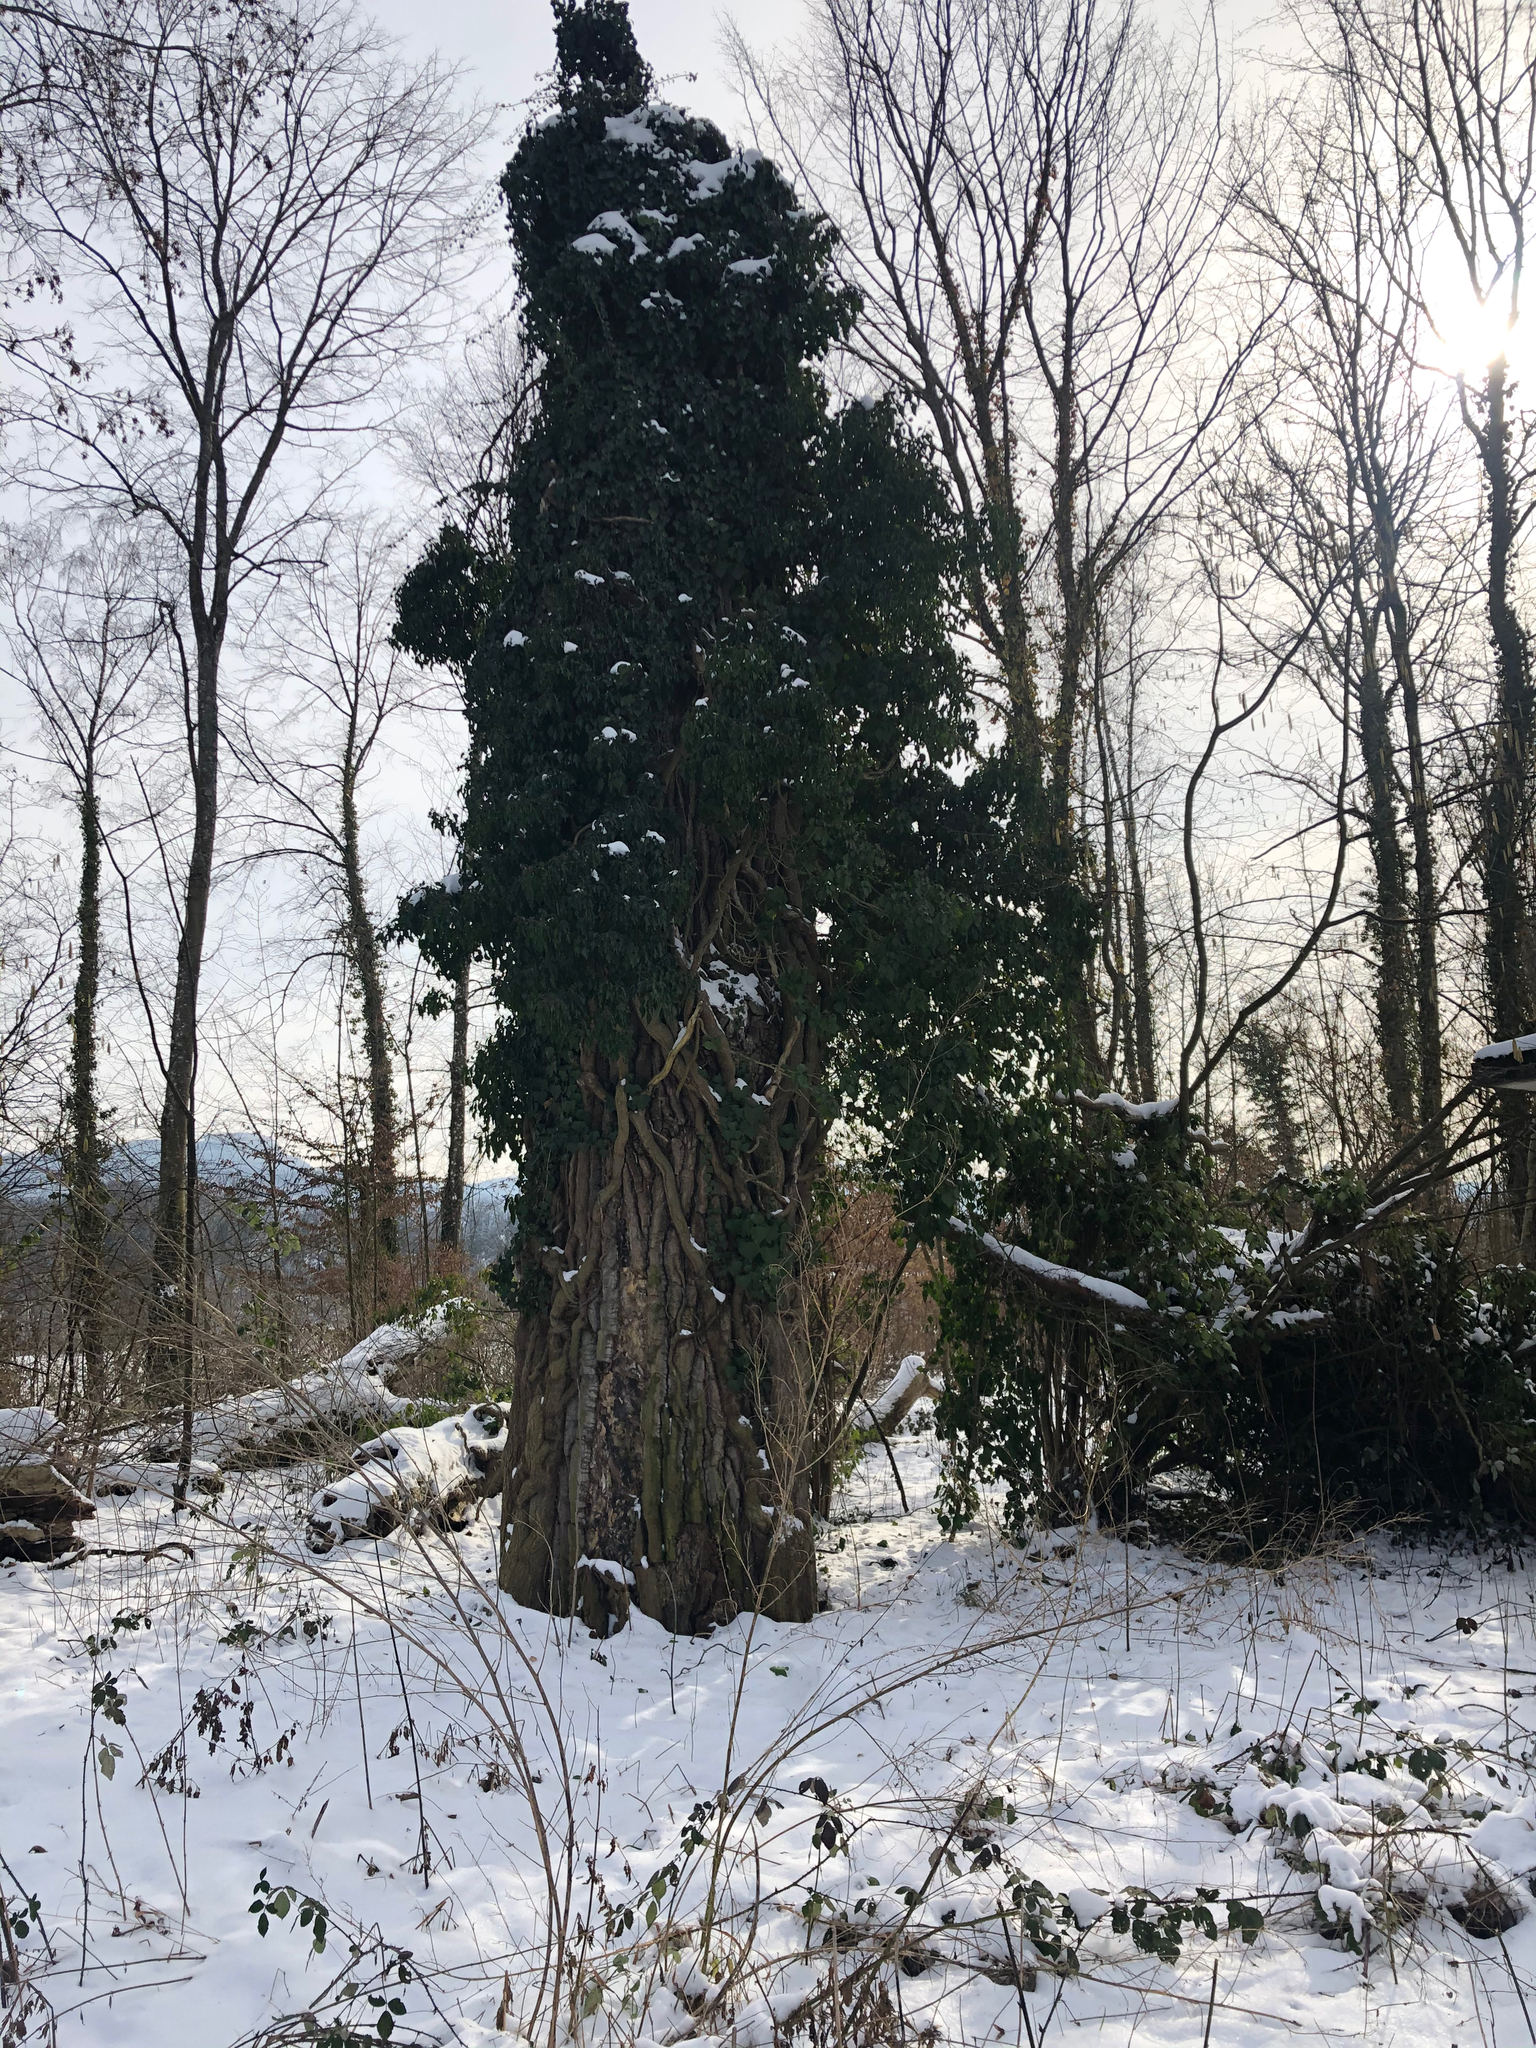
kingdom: Plantae
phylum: Tracheophyta
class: Magnoliopsida
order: Apiales
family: Araliaceae
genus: Hedera
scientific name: Hedera helix
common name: Ivy
